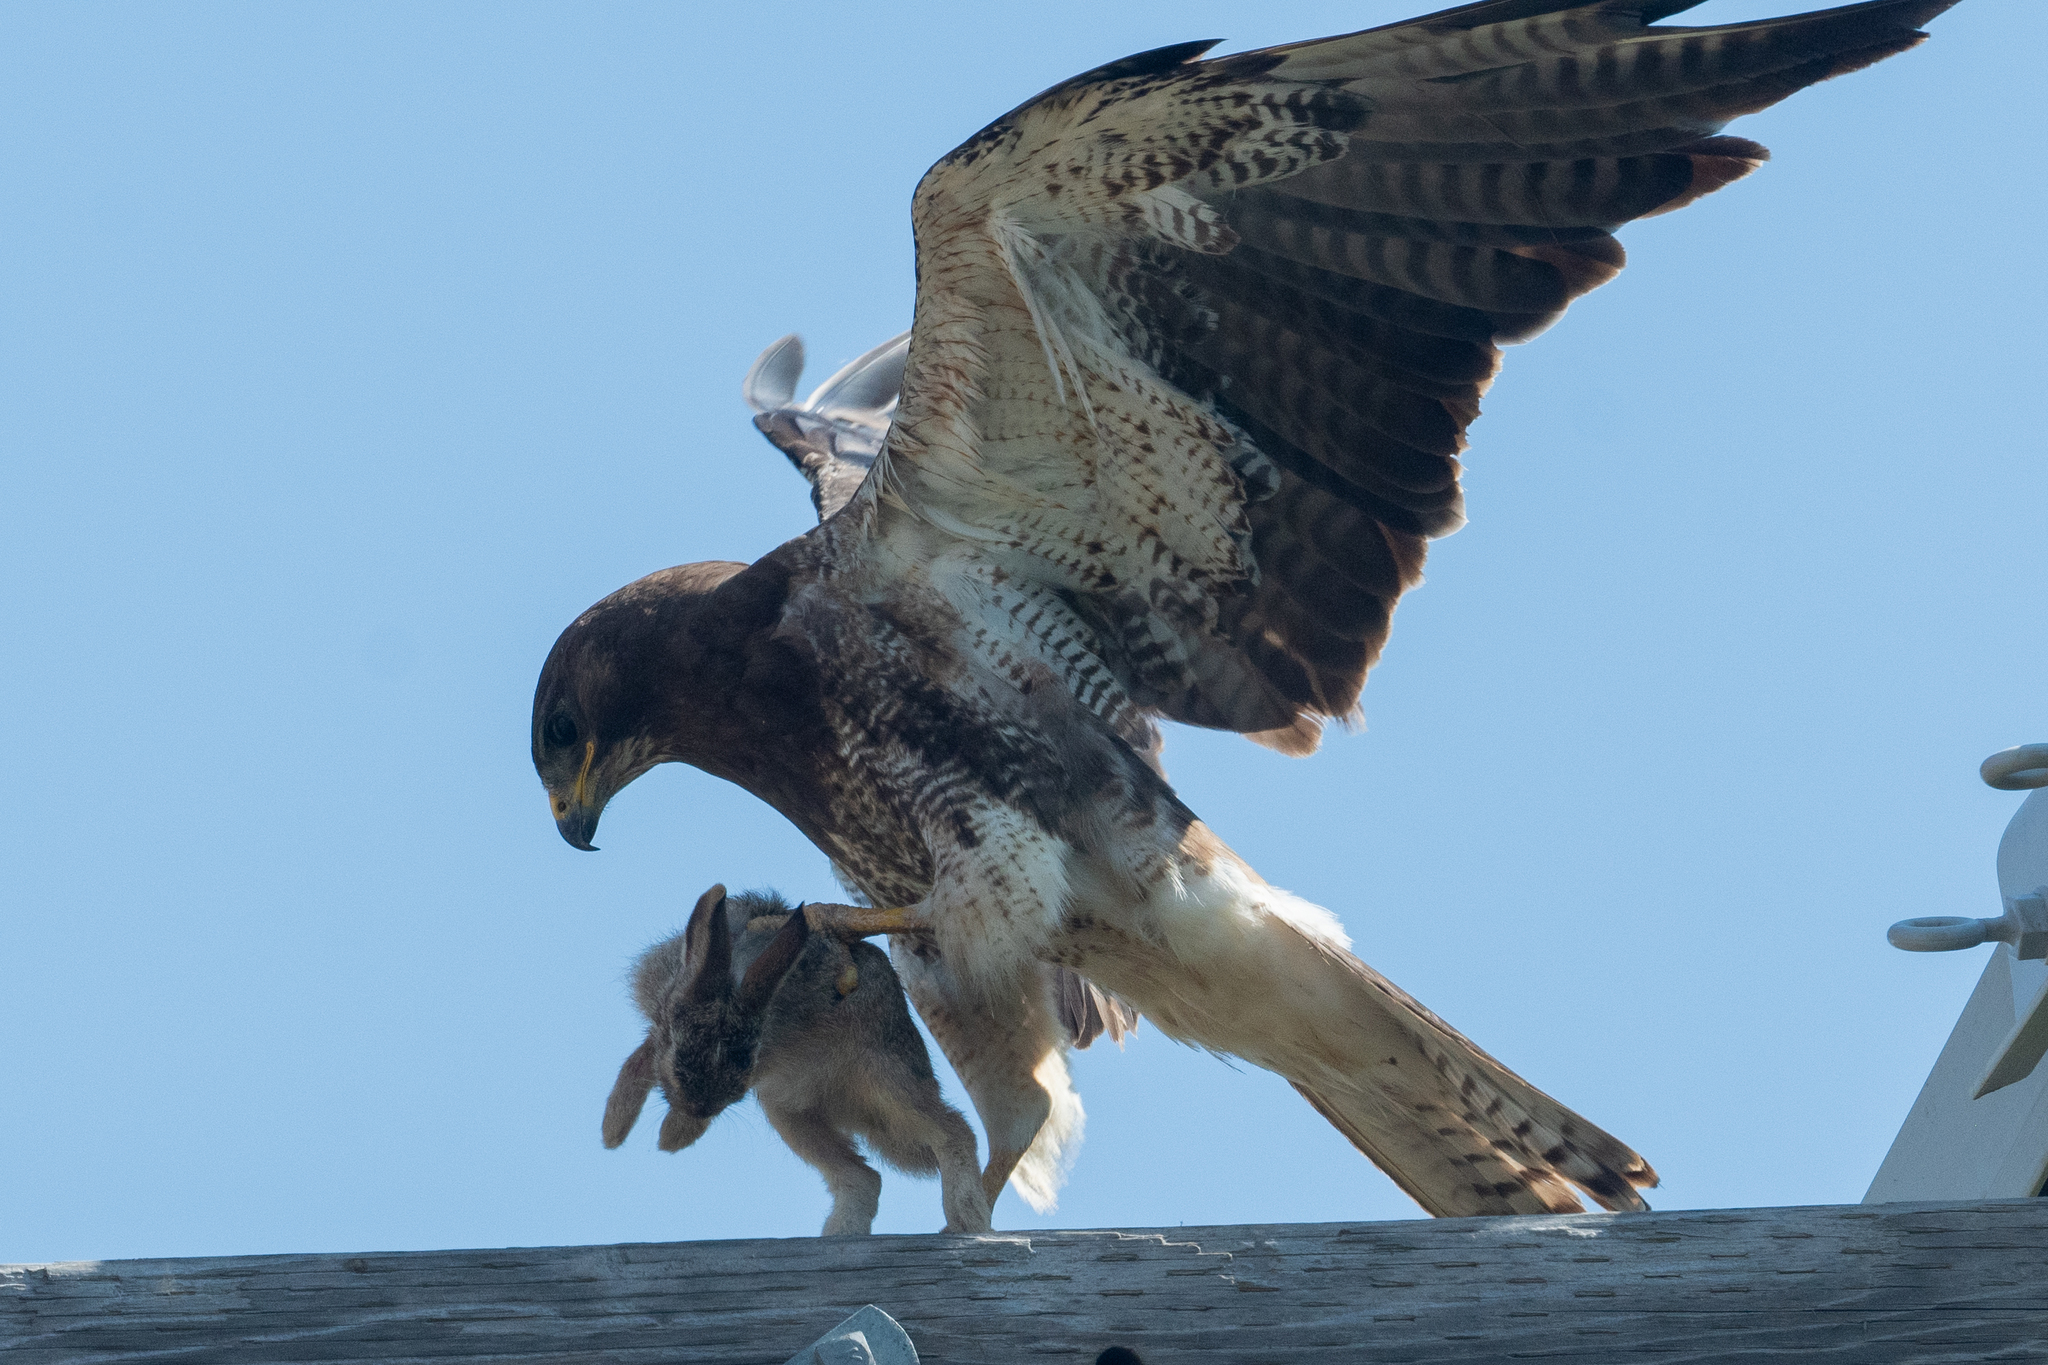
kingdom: Animalia
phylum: Chordata
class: Aves
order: Accipitriformes
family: Accipitridae
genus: Buteo
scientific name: Buteo swainsoni
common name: Swainson's hawk
